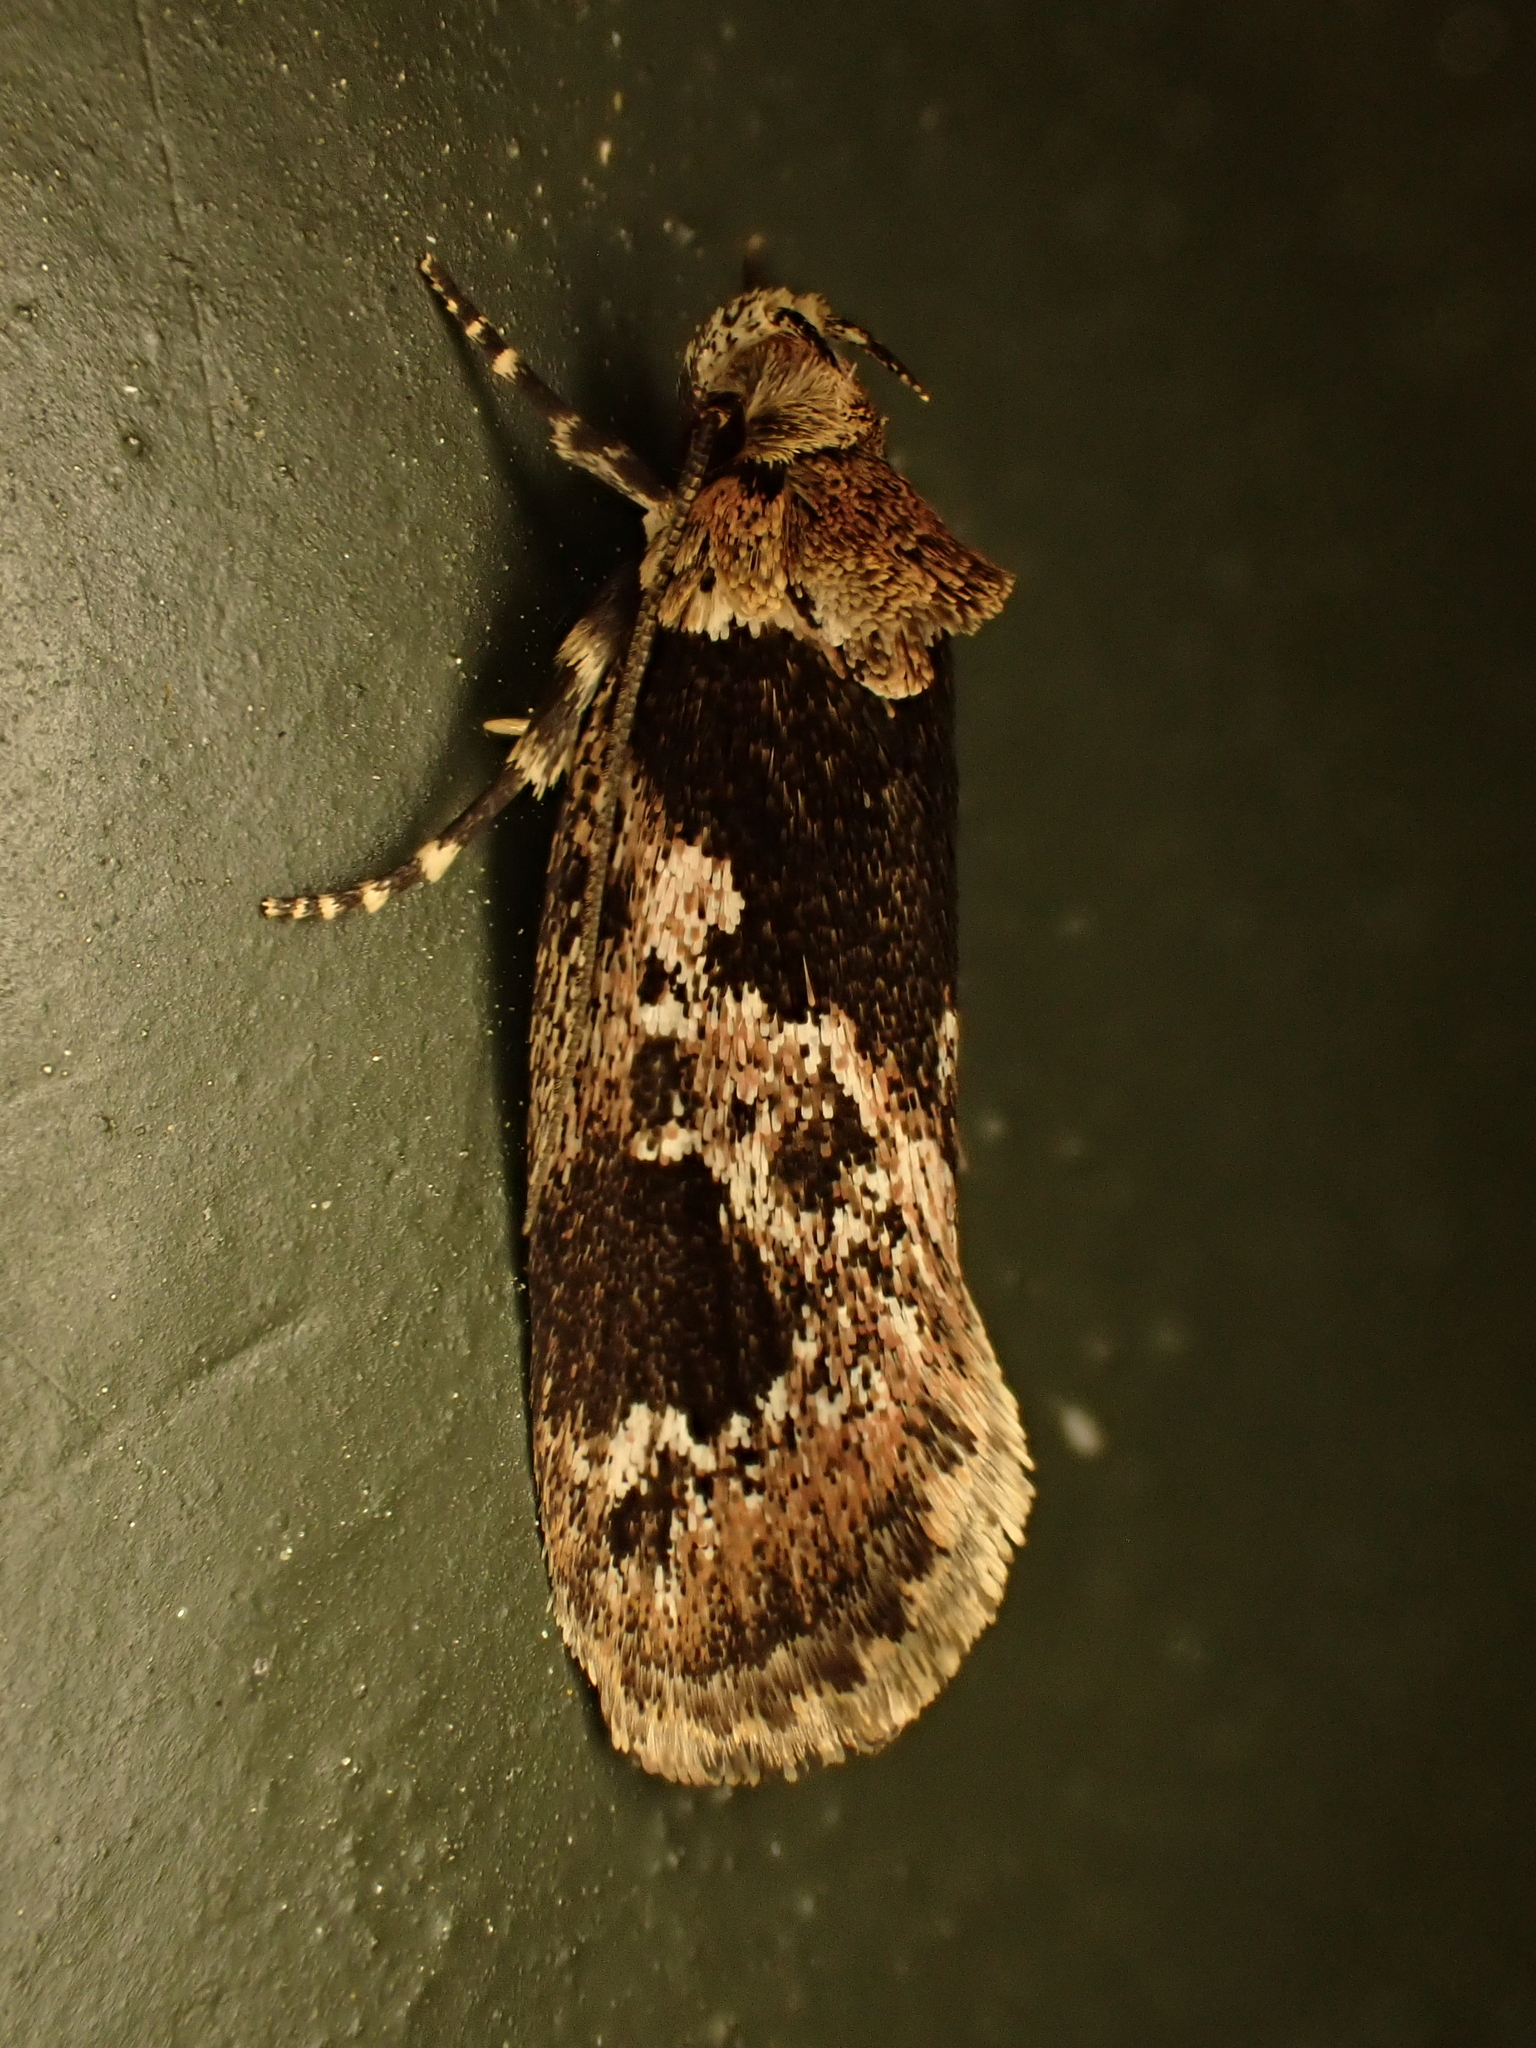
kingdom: Animalia
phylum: Arthropoda
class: Insecta
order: Lepidoptera
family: Oecophoridae
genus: Barea
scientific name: Barea consignatella
